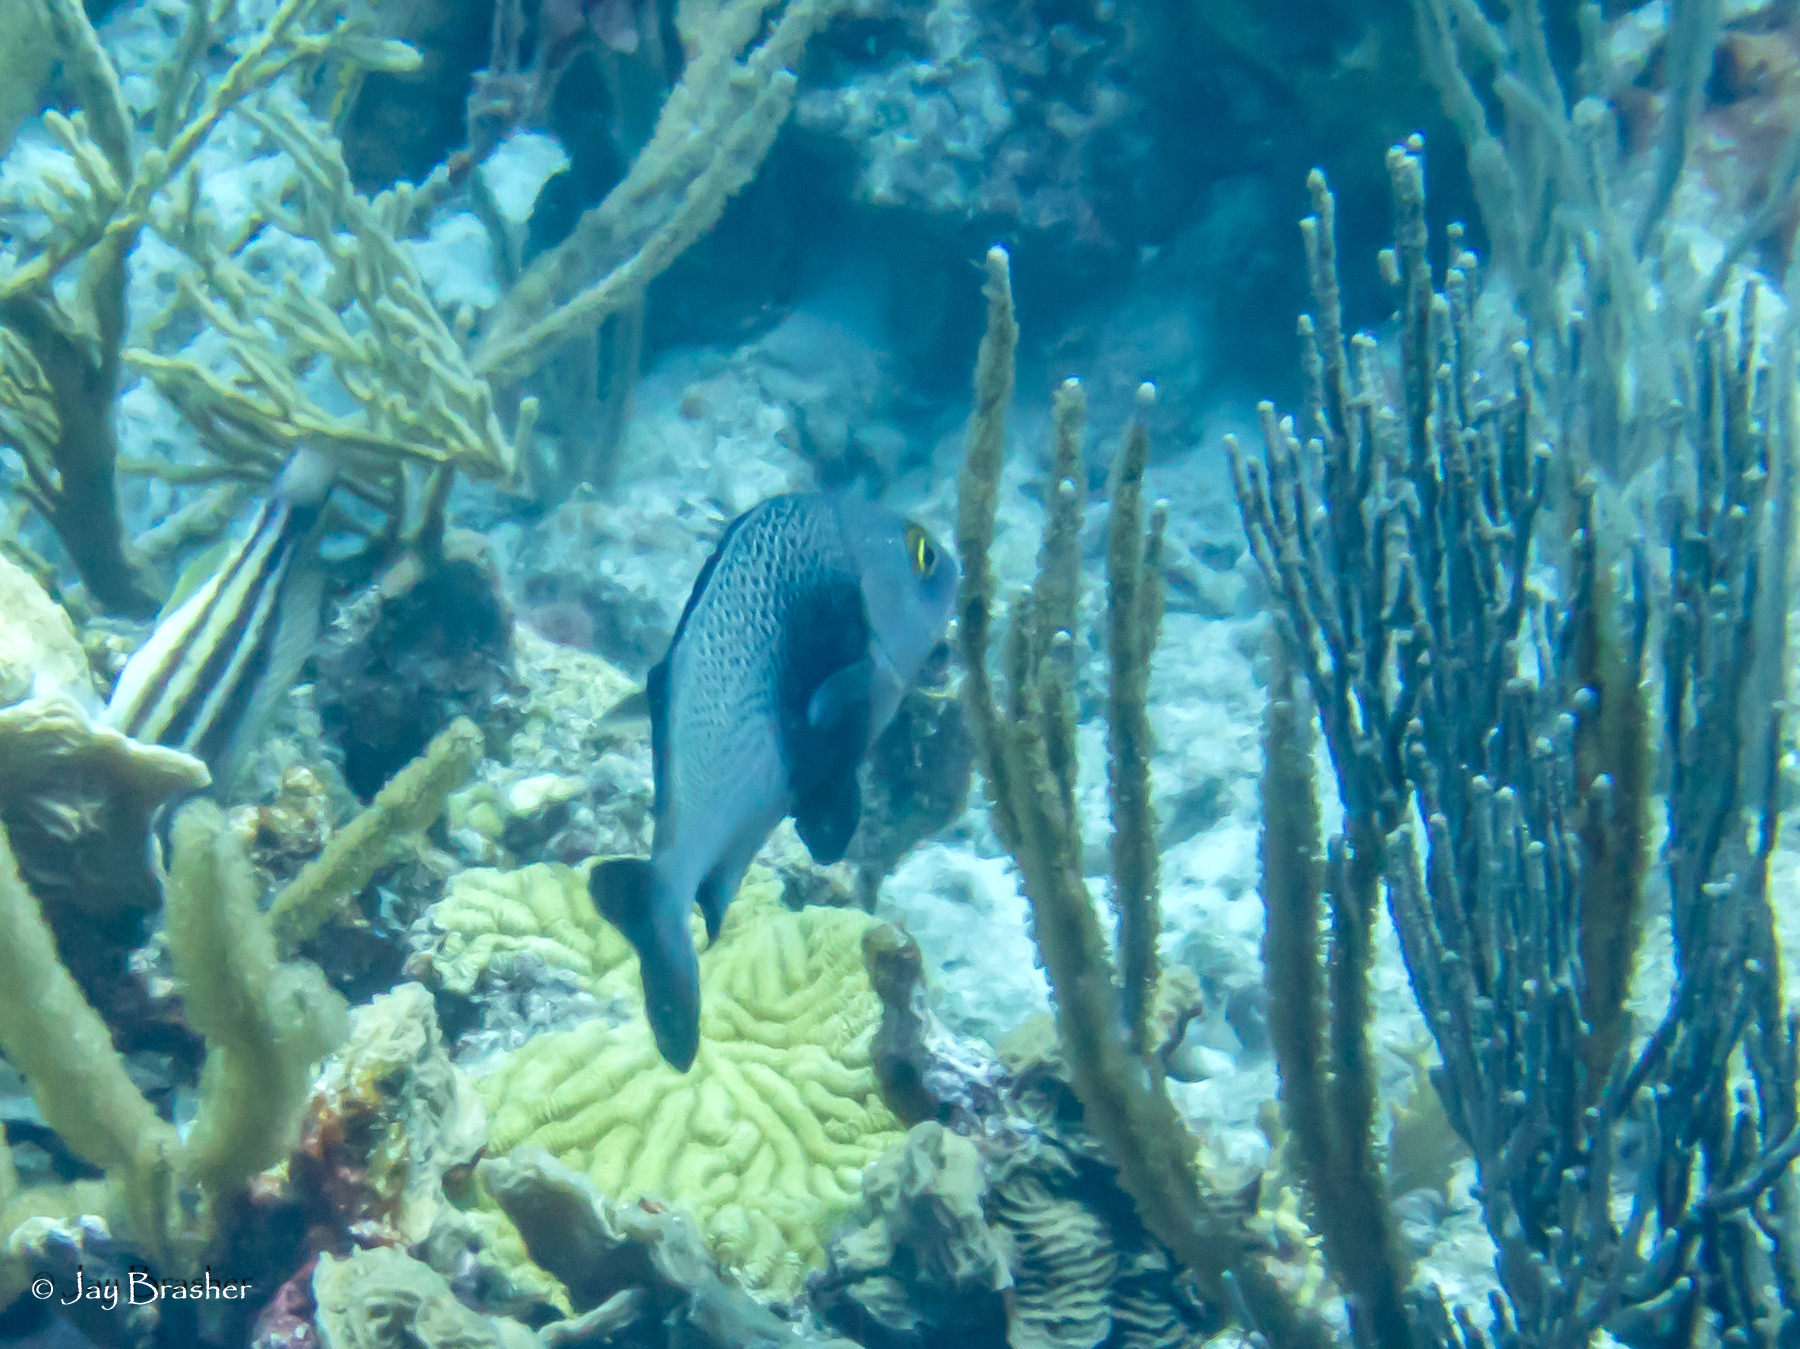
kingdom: Animalia
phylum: Chordata
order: Perciformes
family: Haemulidae
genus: Anisotremus
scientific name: Anisotremus surinamensis
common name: Black margate
